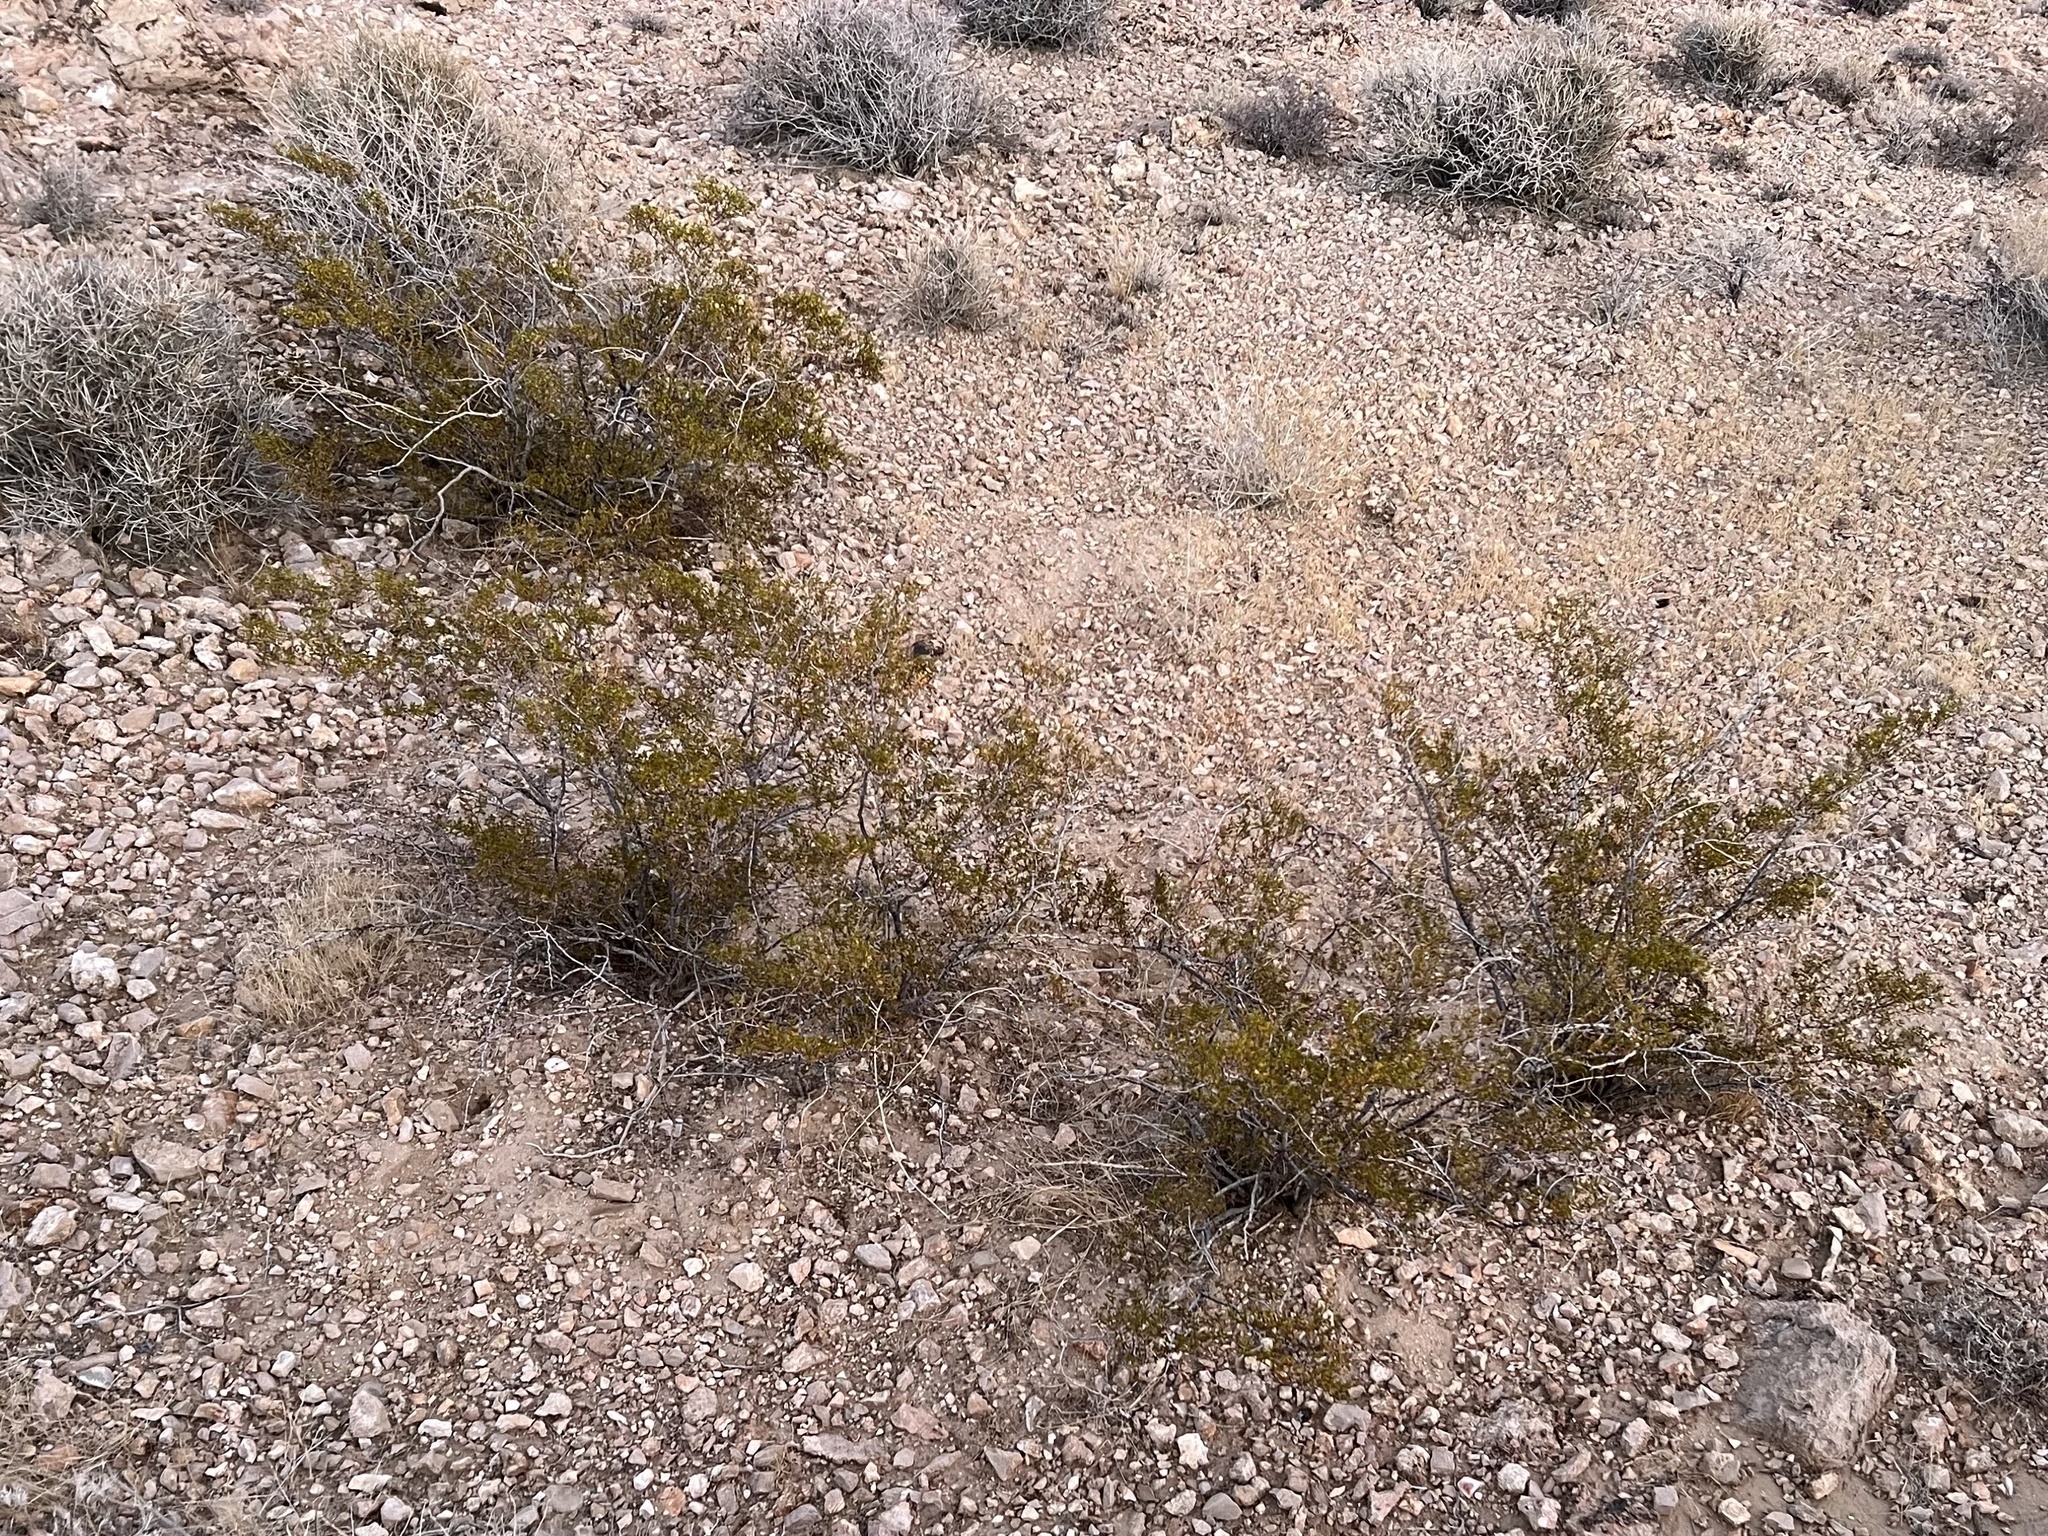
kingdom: Plantae
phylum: Tracheophyta
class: Magnoliopsida
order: Zygophyllales
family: Zygophyllaceae
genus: Larrea
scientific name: Larrea tridentata
